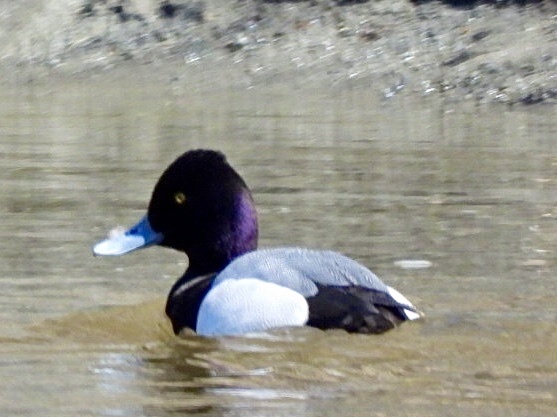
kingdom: Animalia
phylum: Chordata
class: Aves
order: Anseriformes
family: Anatidae
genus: Aythya
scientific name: Aythya affinis
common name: Lesser scaup
